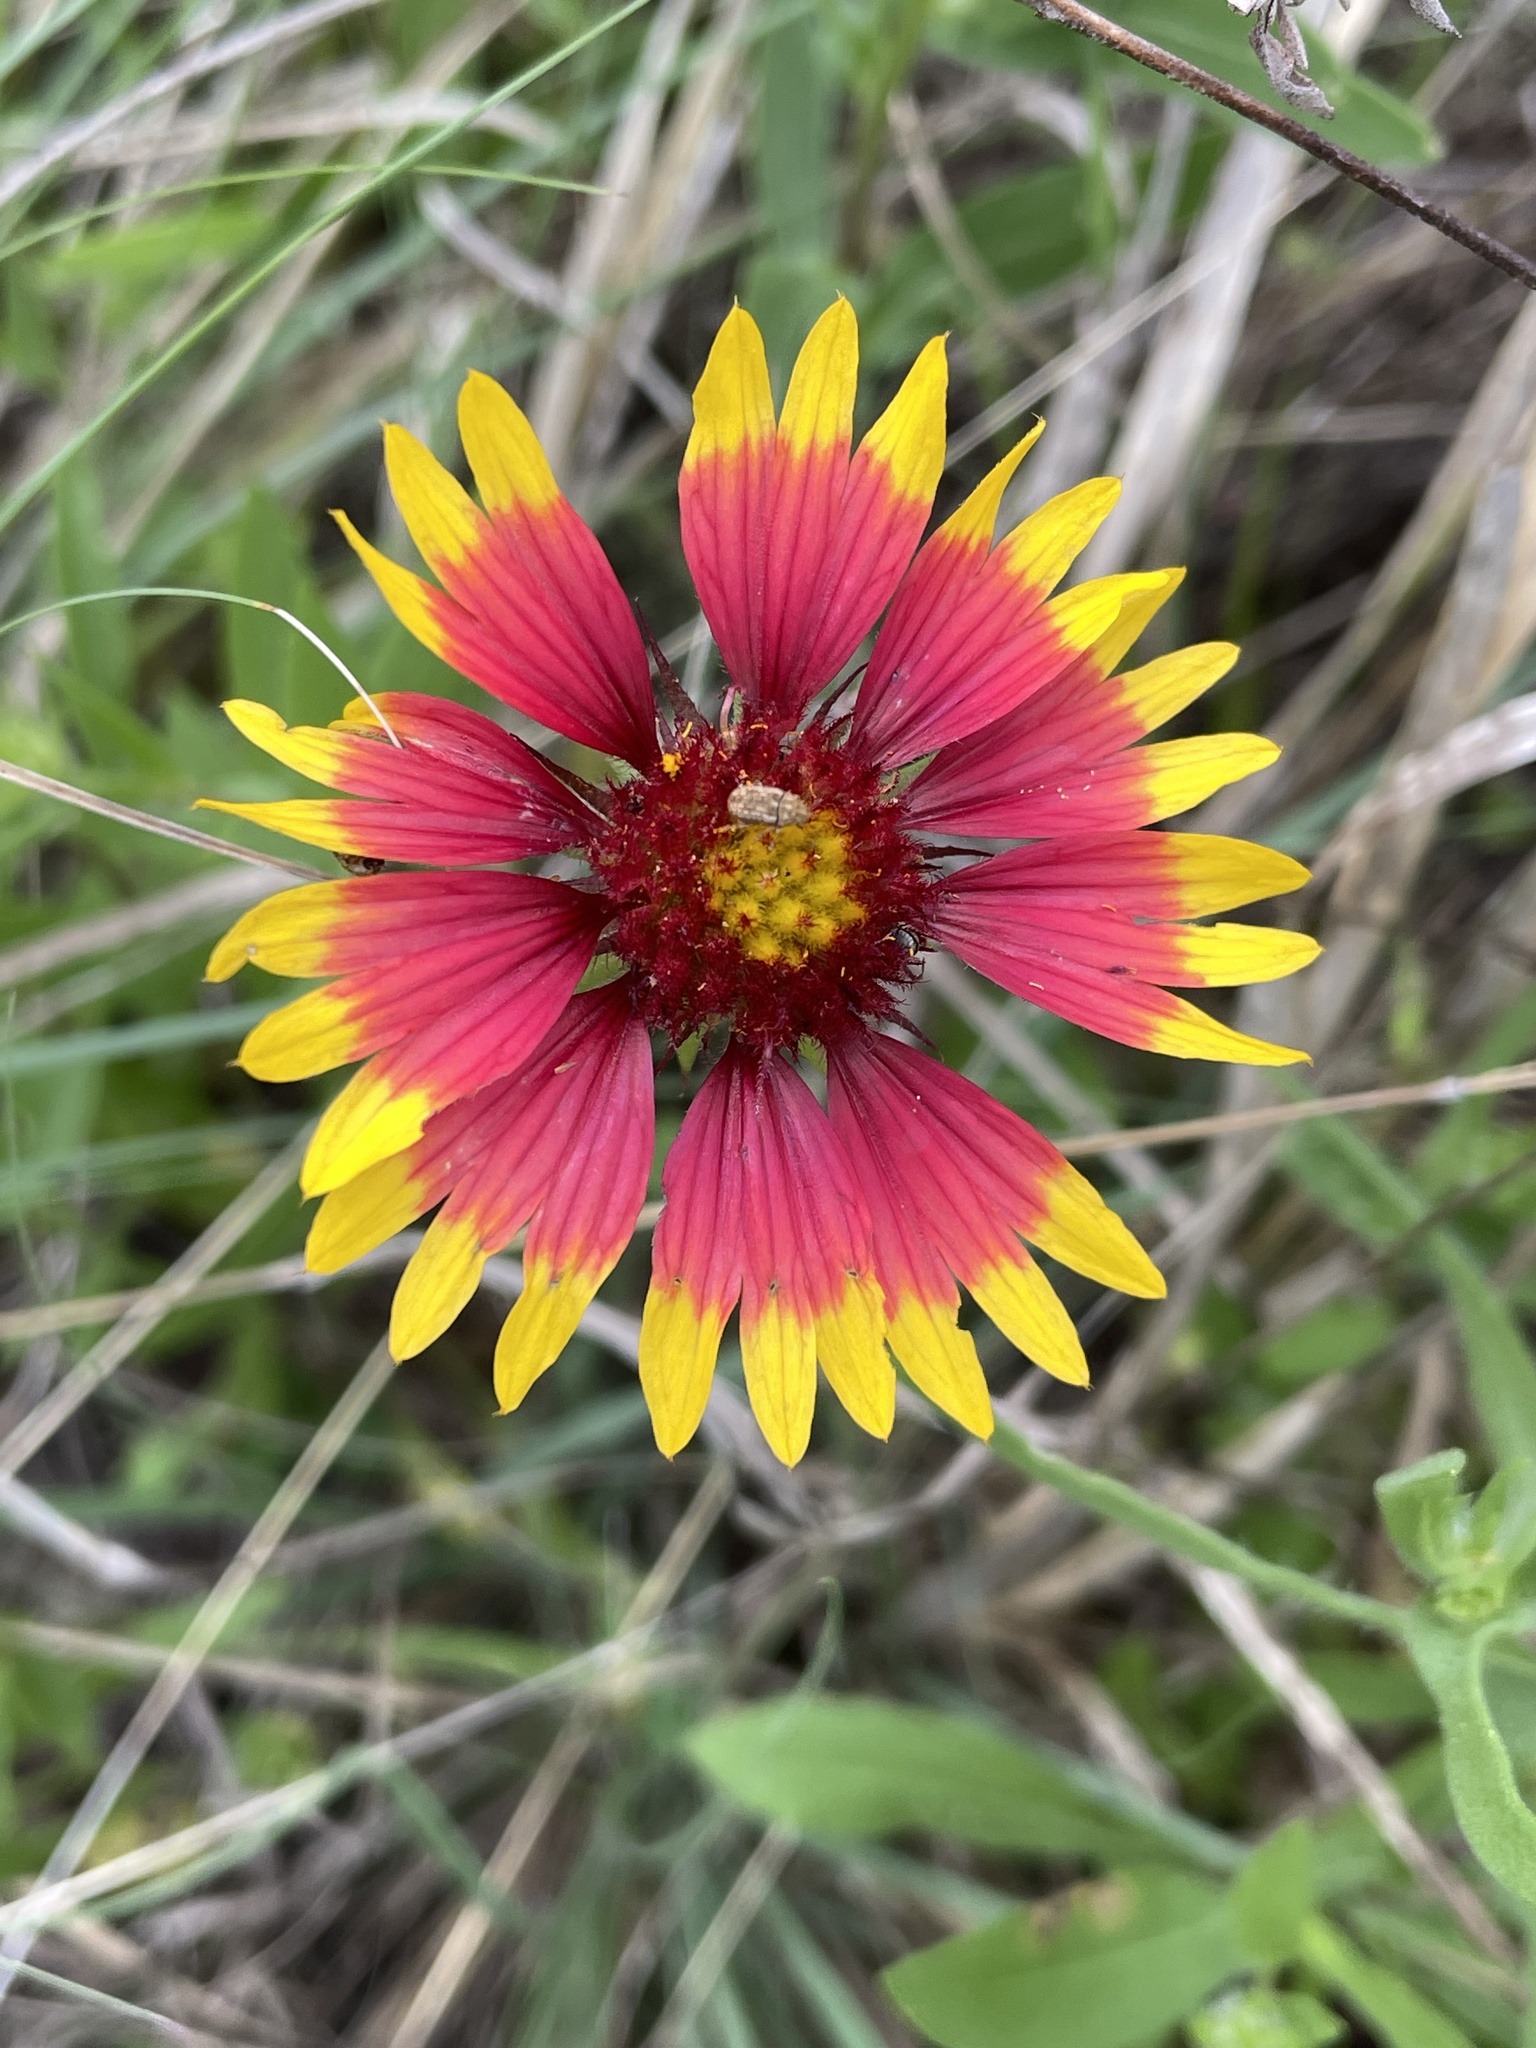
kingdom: Plantae
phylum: Tracheophyta
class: Magnoliopsida
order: Asterales
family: Asteraceae
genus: Gaillardia
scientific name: Gaillardia pulchella
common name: Firewheel
